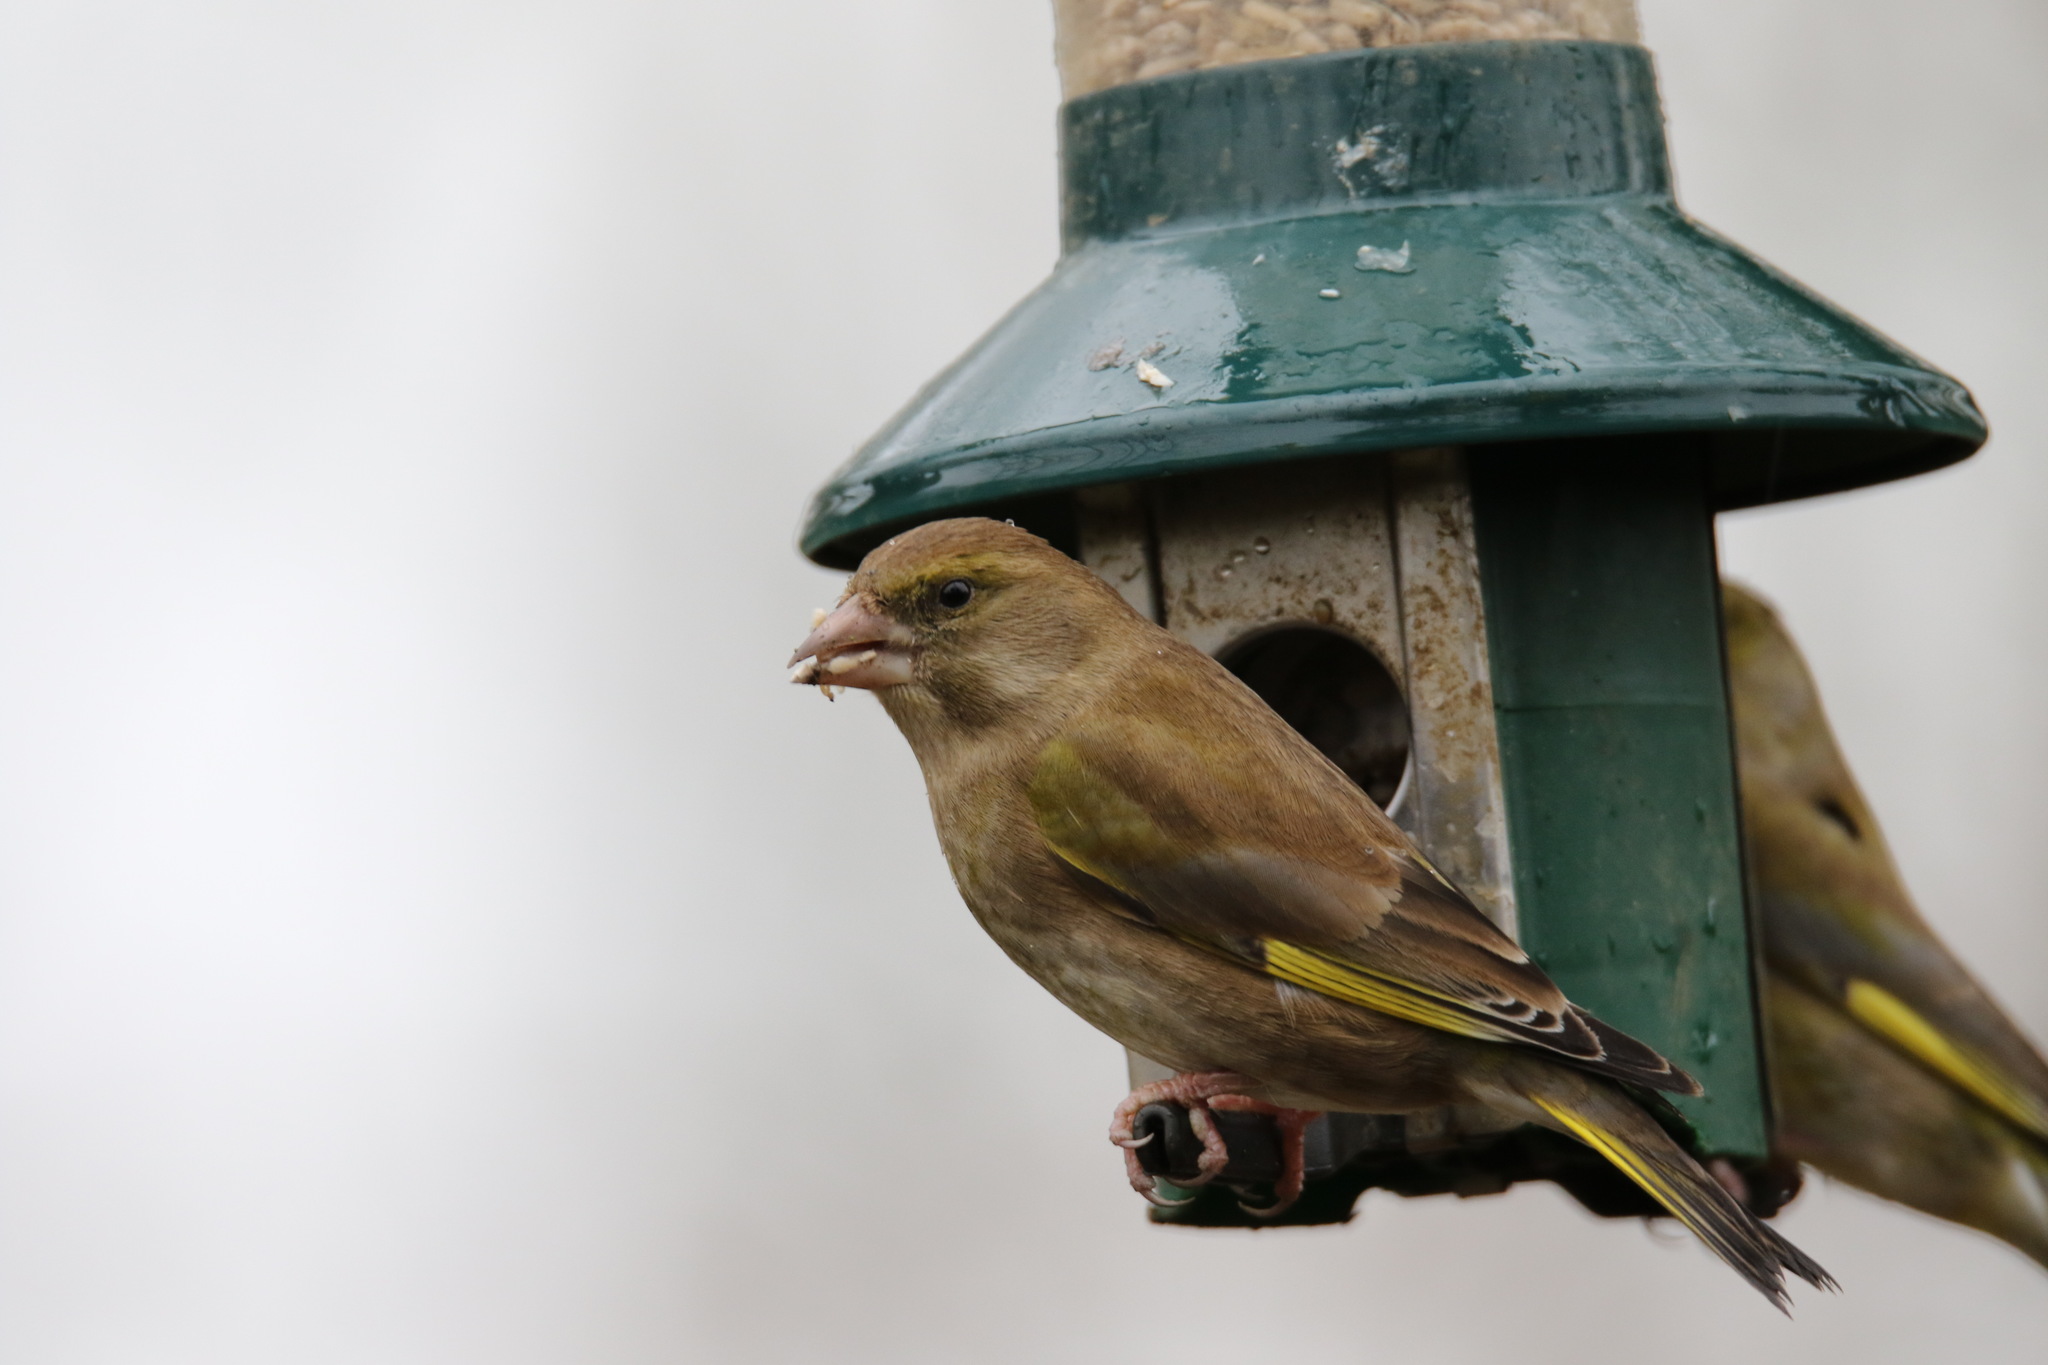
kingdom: Plantae
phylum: Tracheophyta
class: Liliopsida
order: Poales
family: Poaceae
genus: Chloris
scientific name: Chloris chloris
